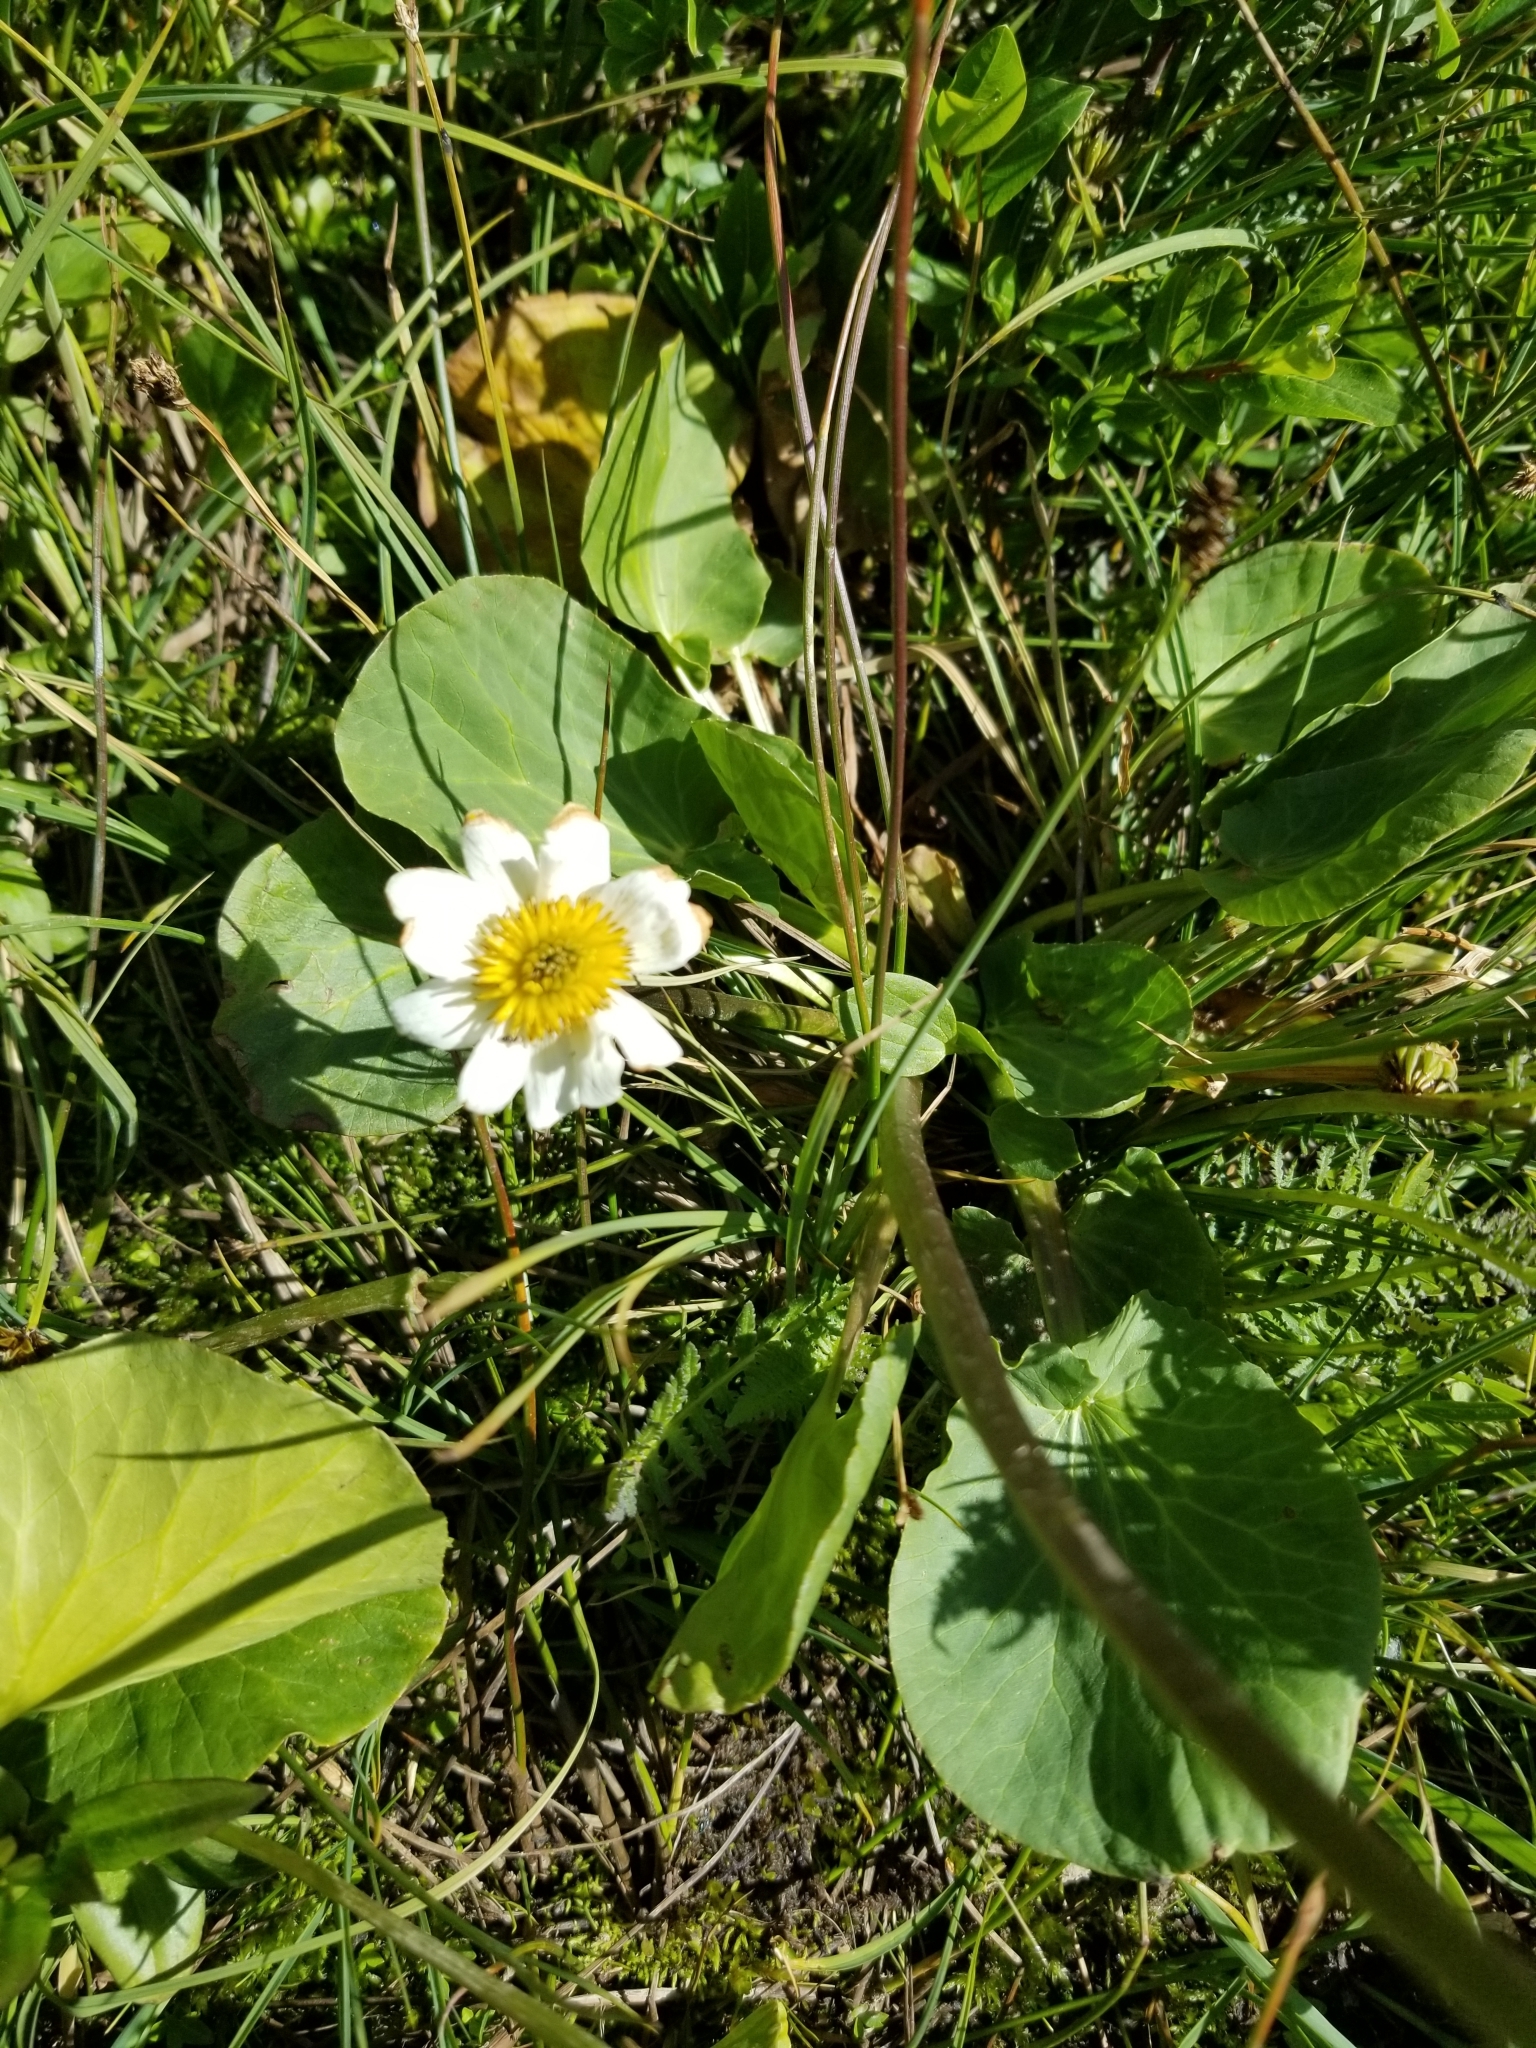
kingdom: Plantae
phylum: Tracheophyta
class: Magnoliopsida
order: Ranunculales
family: Ranunculaceae
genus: Caltha
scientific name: Caltha leptosepala
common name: Elkslip
